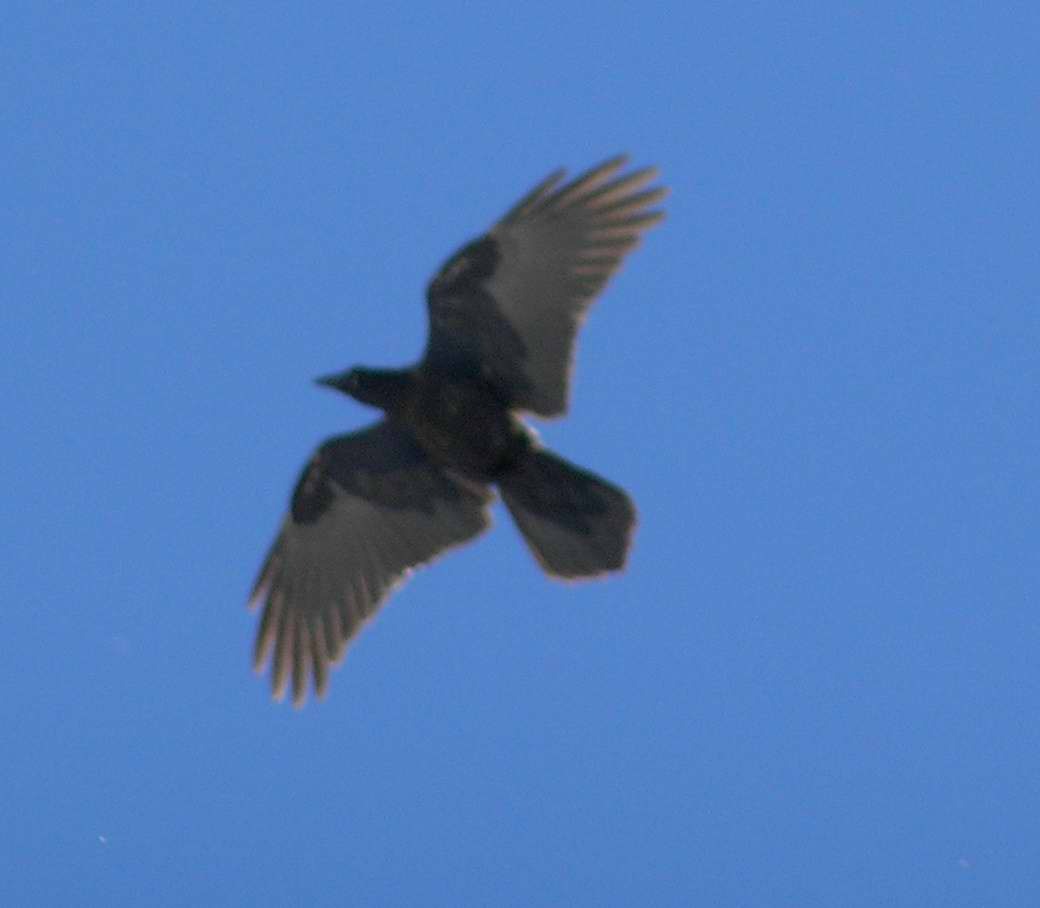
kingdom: Animalia
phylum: Chordata
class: Aves
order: Passeriformes
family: Corvidae
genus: Corvus
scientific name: Corvus corax
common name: Common raven
